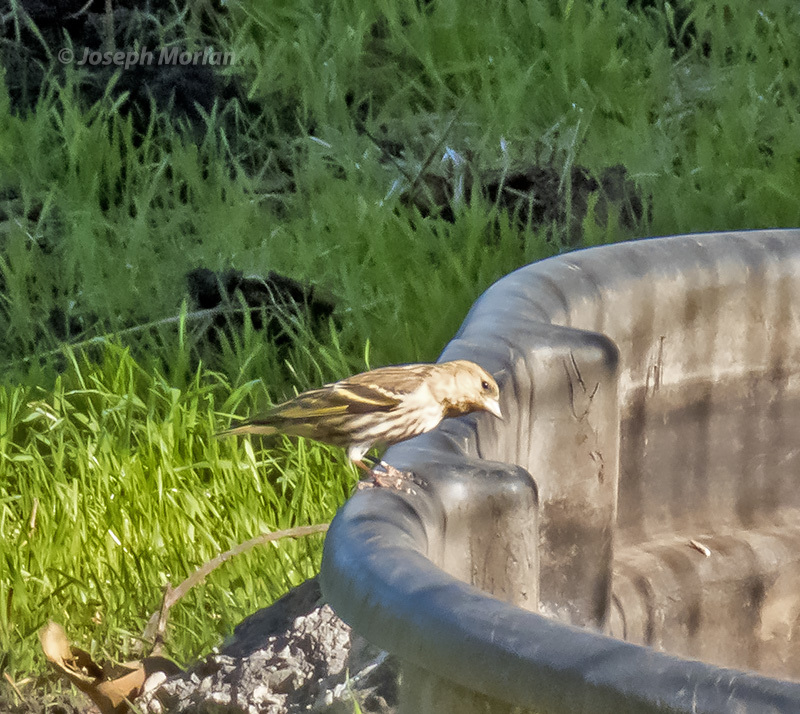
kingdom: Animalia
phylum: Chordata
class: Aves
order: Passeriformes
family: Fringillidae
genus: Spinus
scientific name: Spinus pinus
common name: Pine siskin
